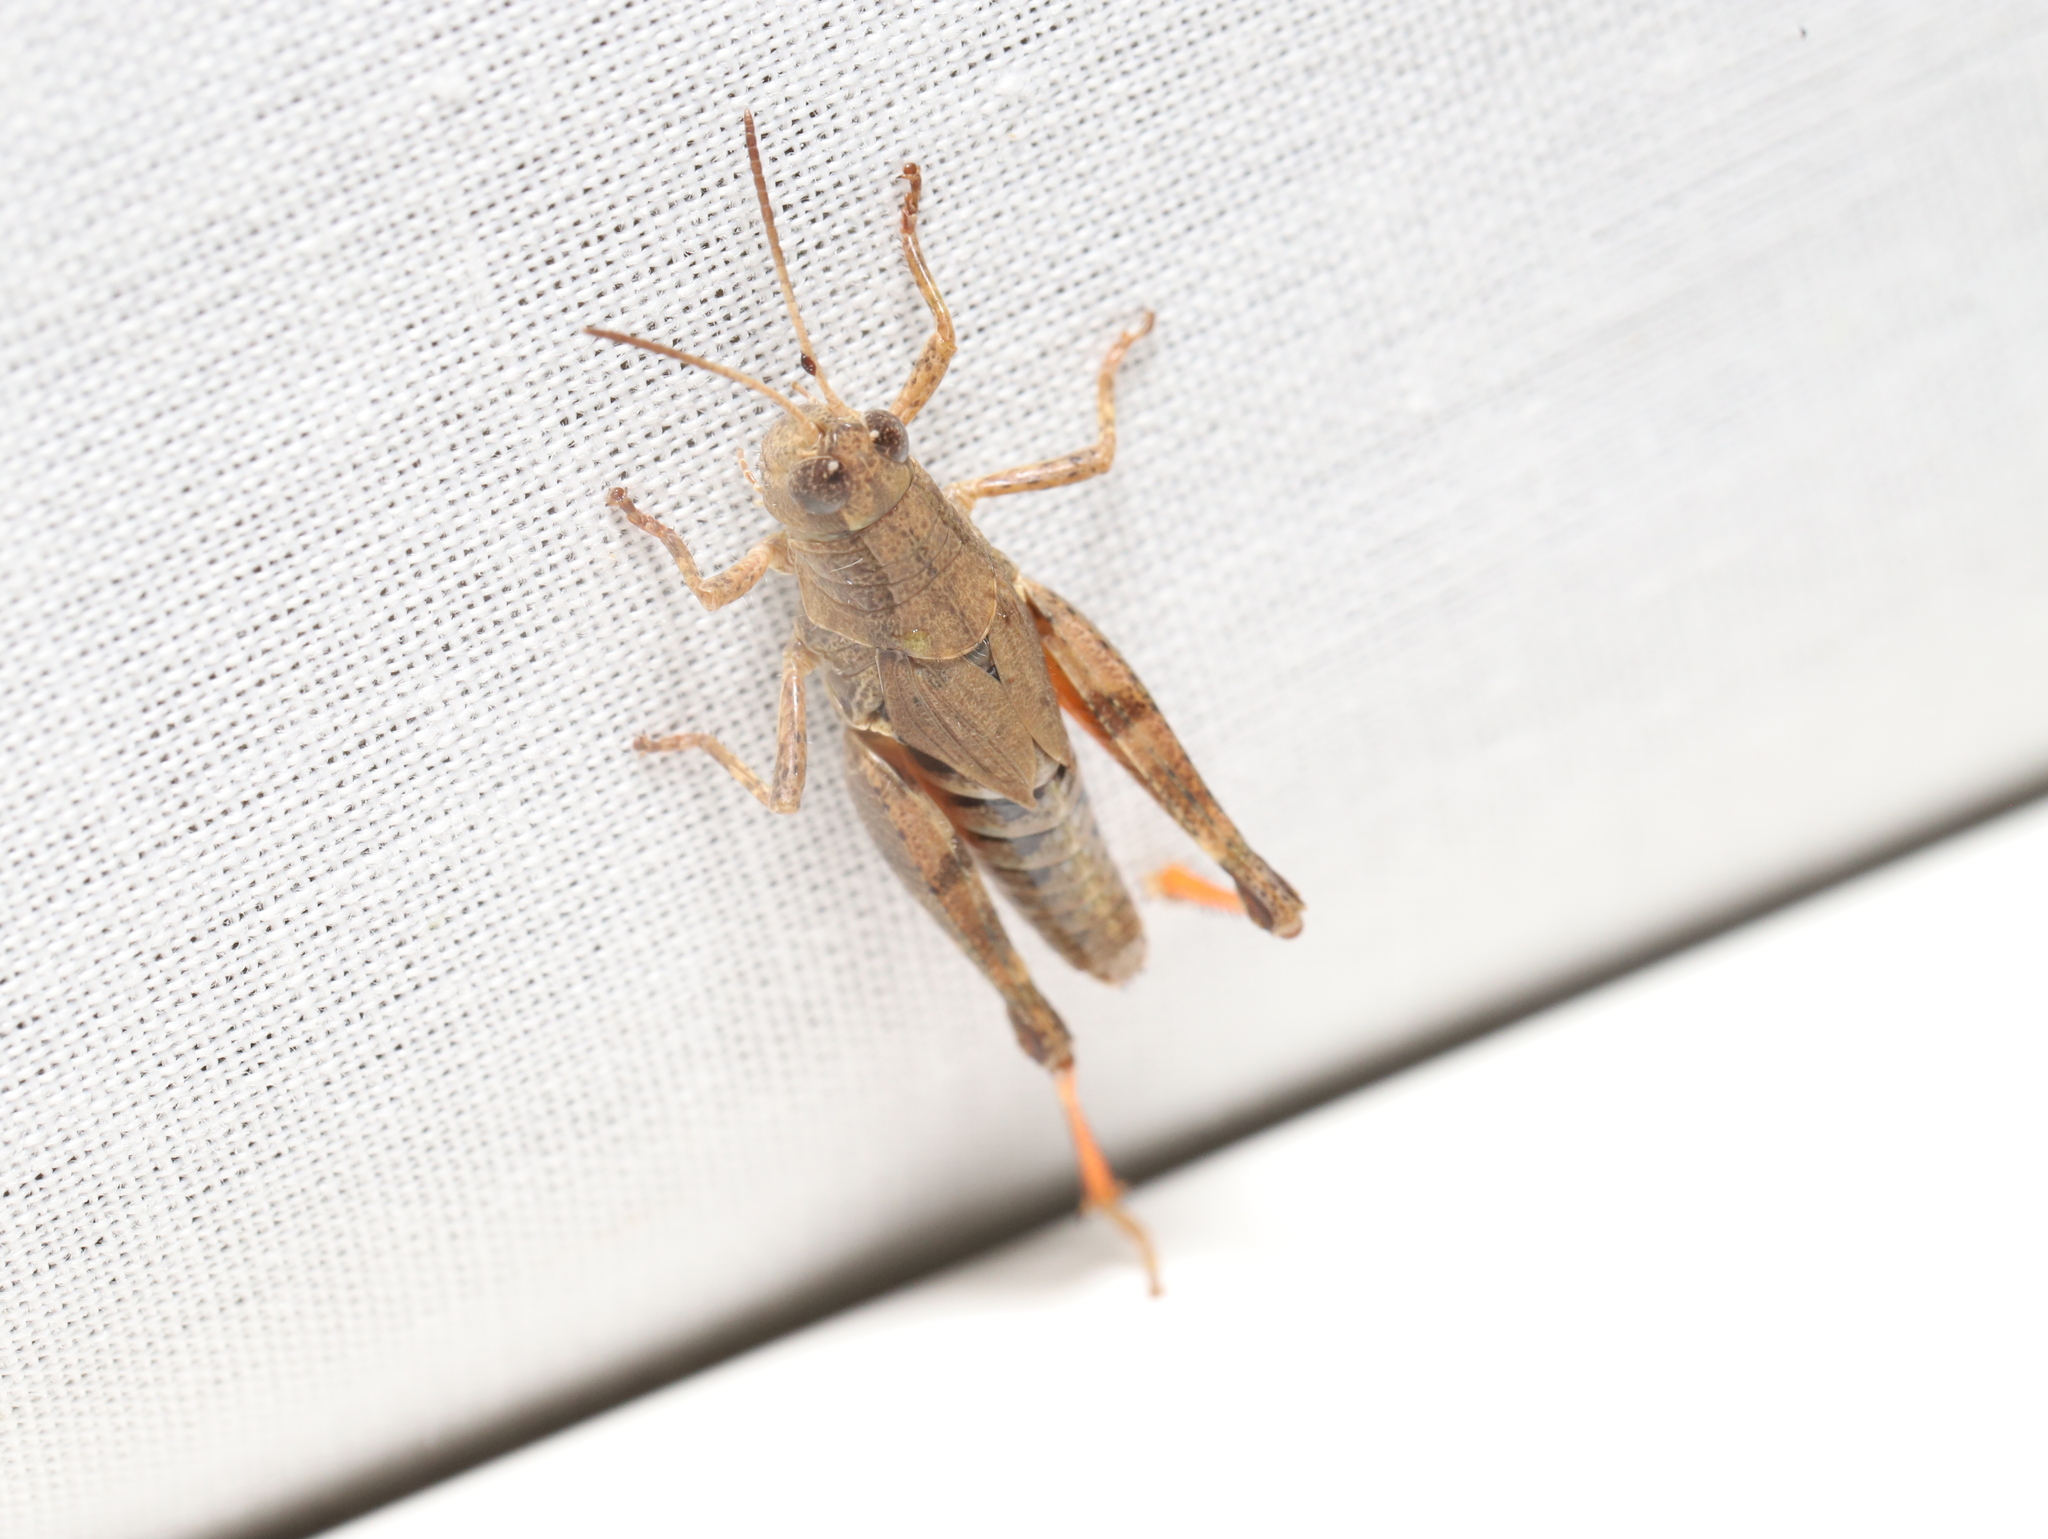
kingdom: Animalia
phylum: Arthropoda
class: Insecta
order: Orthoptera
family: Acrididae
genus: Phaulacridium
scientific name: Phaulacridium vittatum
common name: Wingless grasshopper
